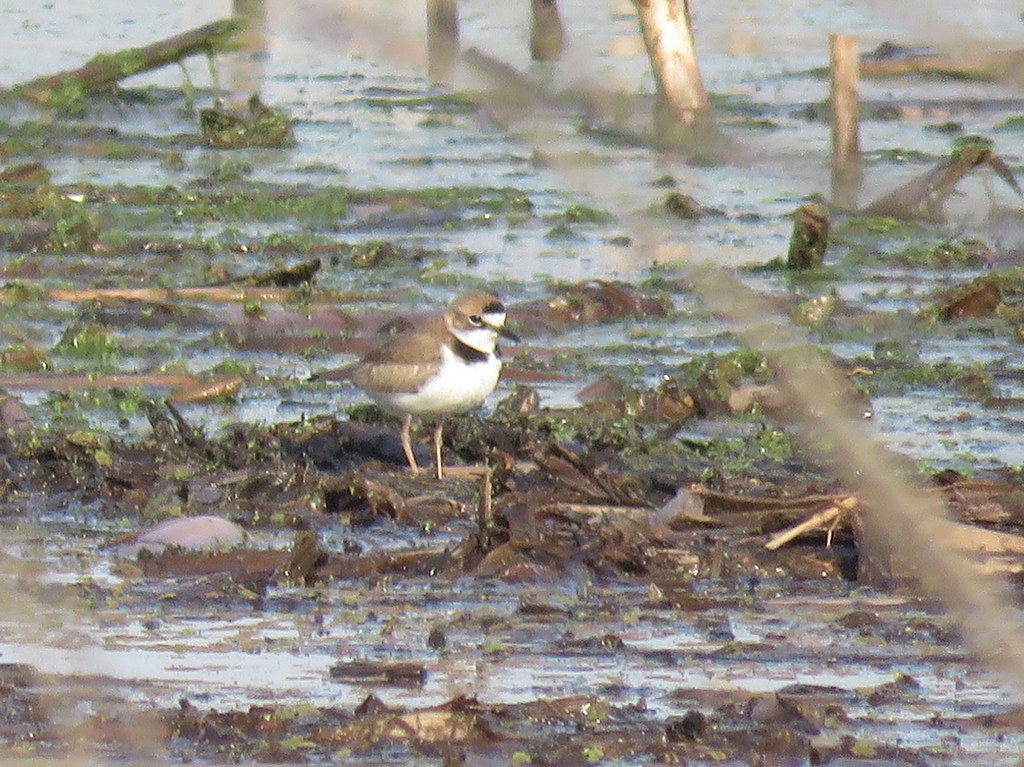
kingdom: Animalia
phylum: Chordata
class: Aves
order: Charadriiformes
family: Charadriidae
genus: Anarhynchus
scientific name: Anarhynchus
